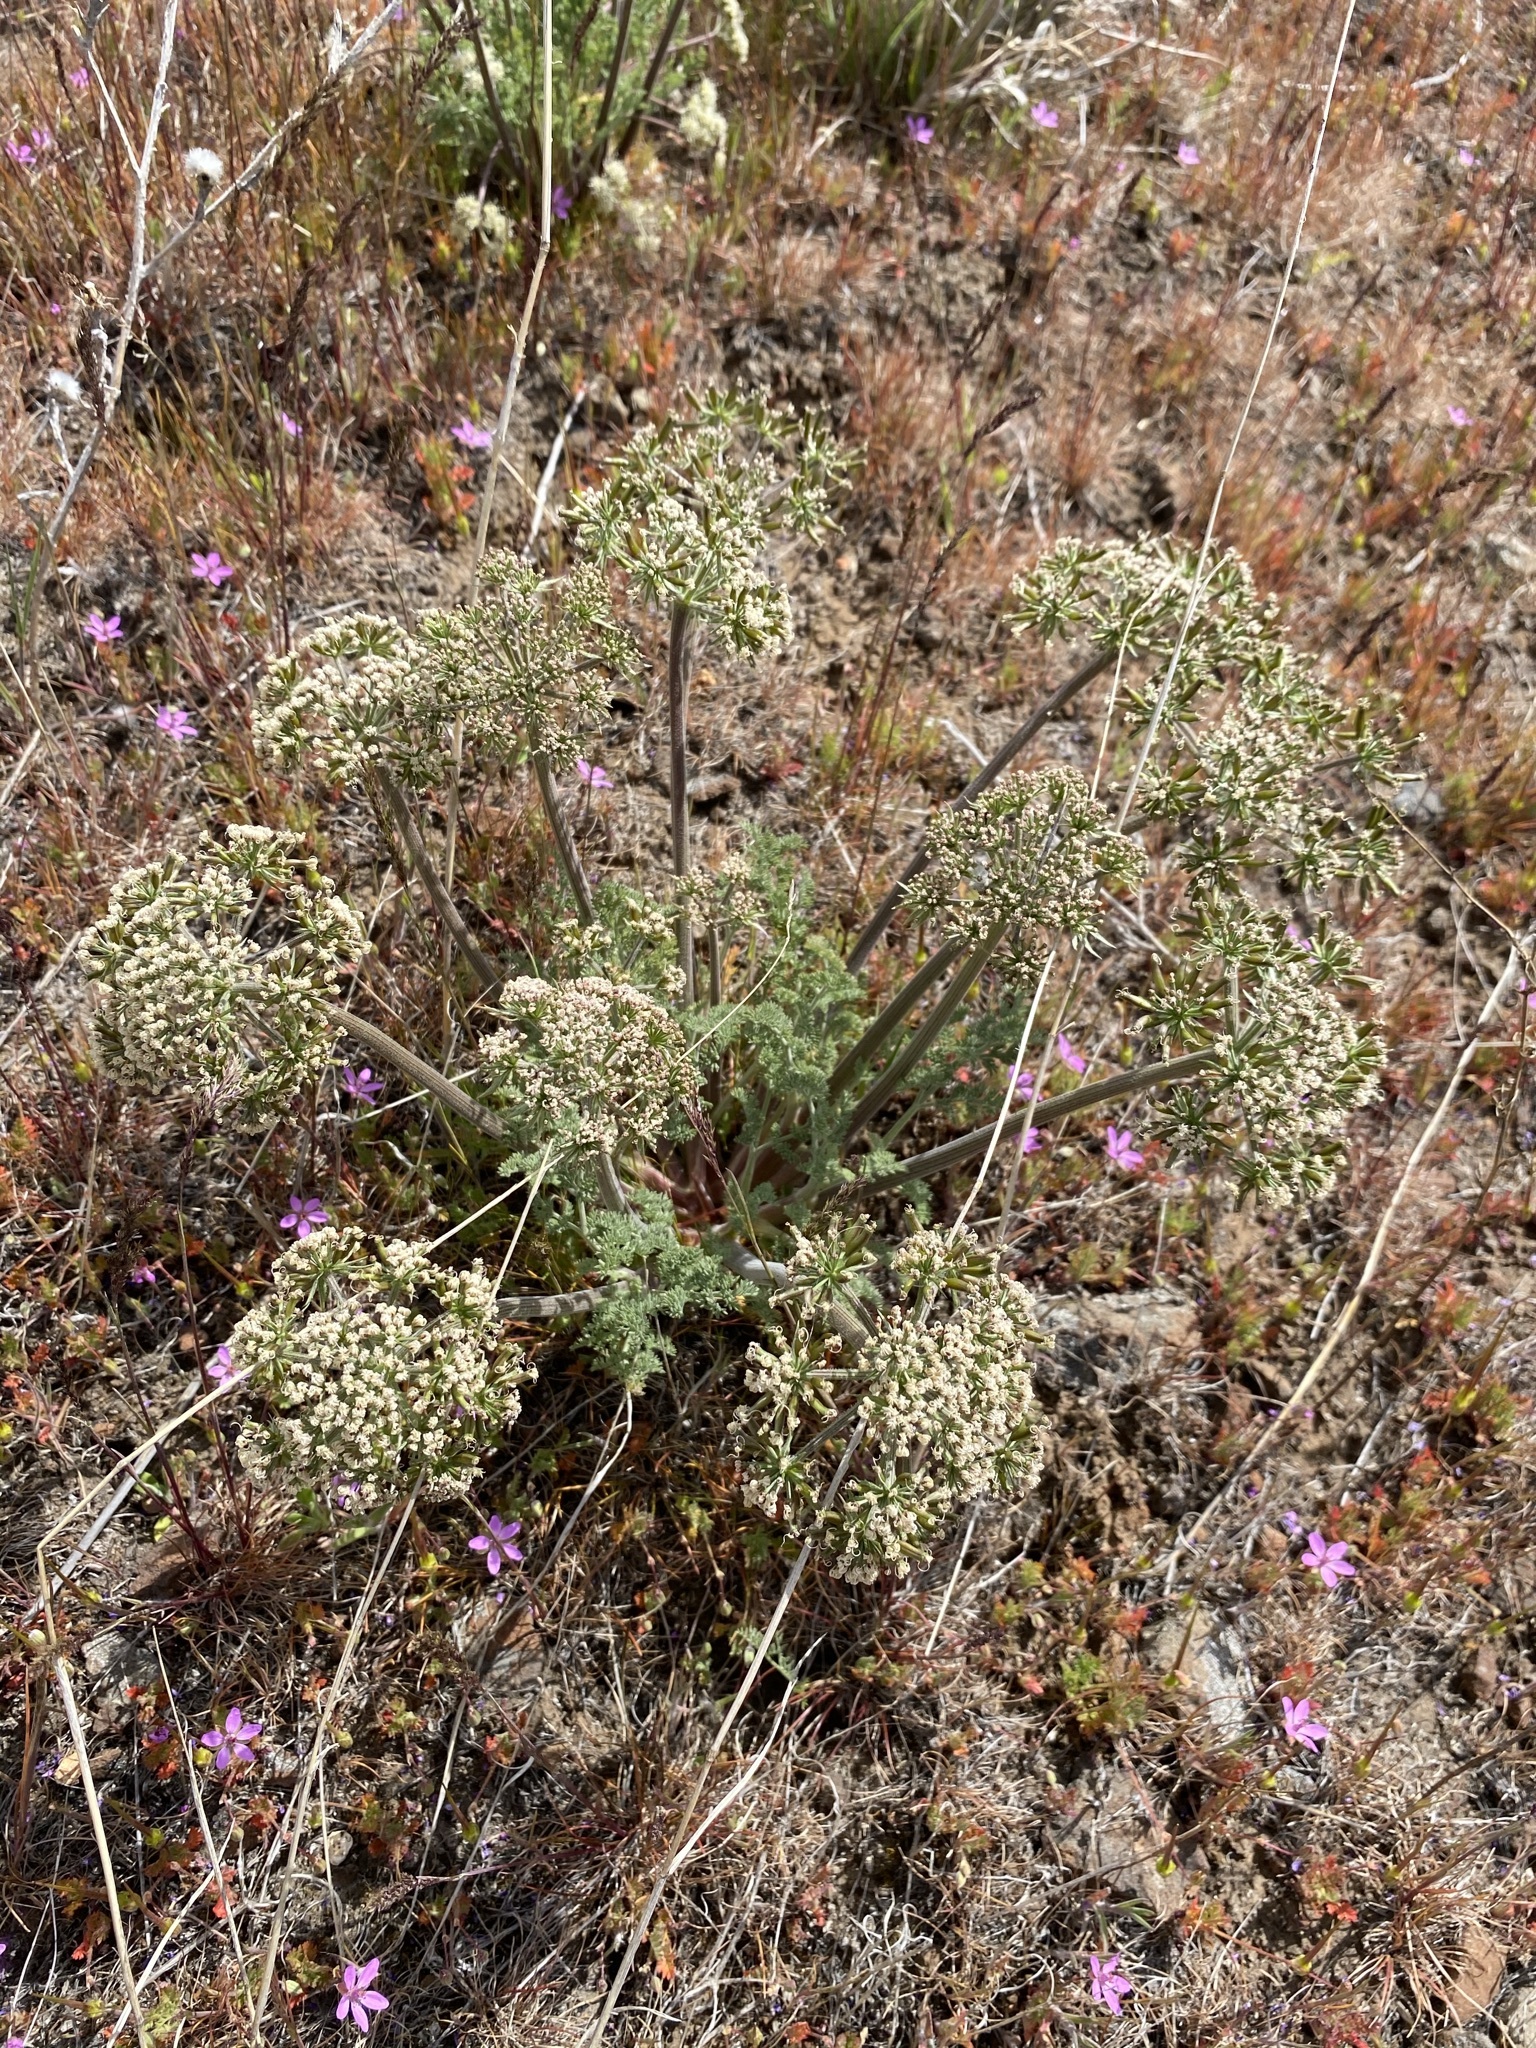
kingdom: Plantae
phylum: Tracheophyta
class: Magnoliopsida
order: Apiales
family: Apiaceae
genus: Lomatium
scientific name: Lomatium macrocarpum
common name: Big-seed biscuitroot
